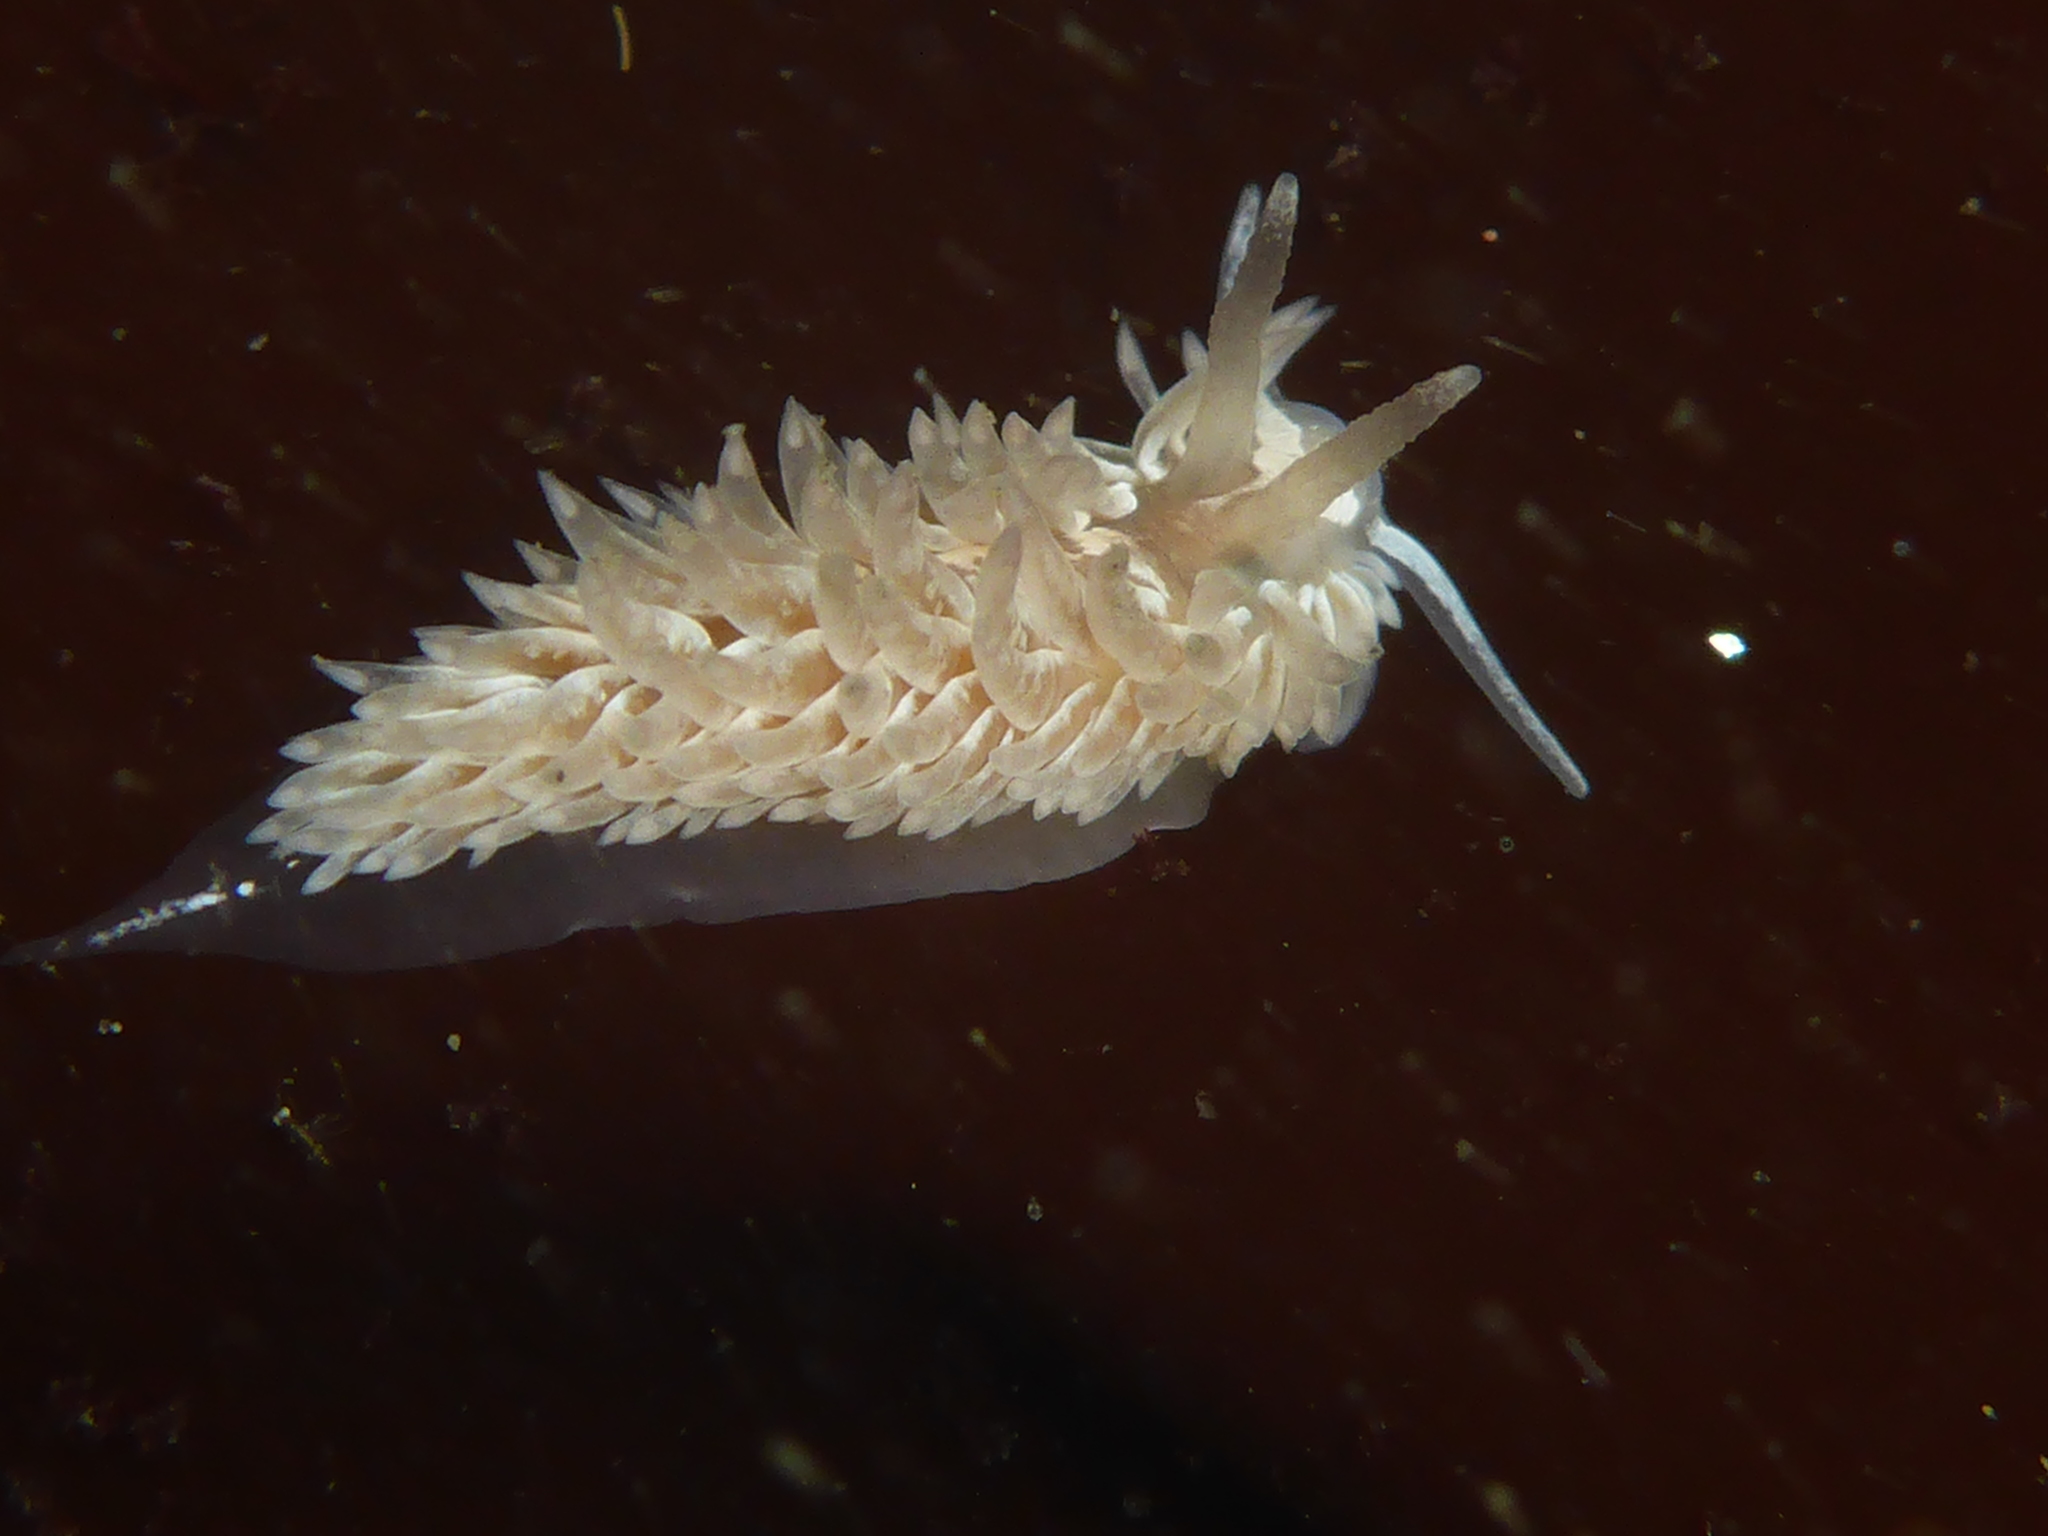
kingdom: Animalia
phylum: Mollusca
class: Gastropoda
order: Nudibranchia
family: Aeolidiidae
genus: Aeolidia
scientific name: Aeolidia loui
